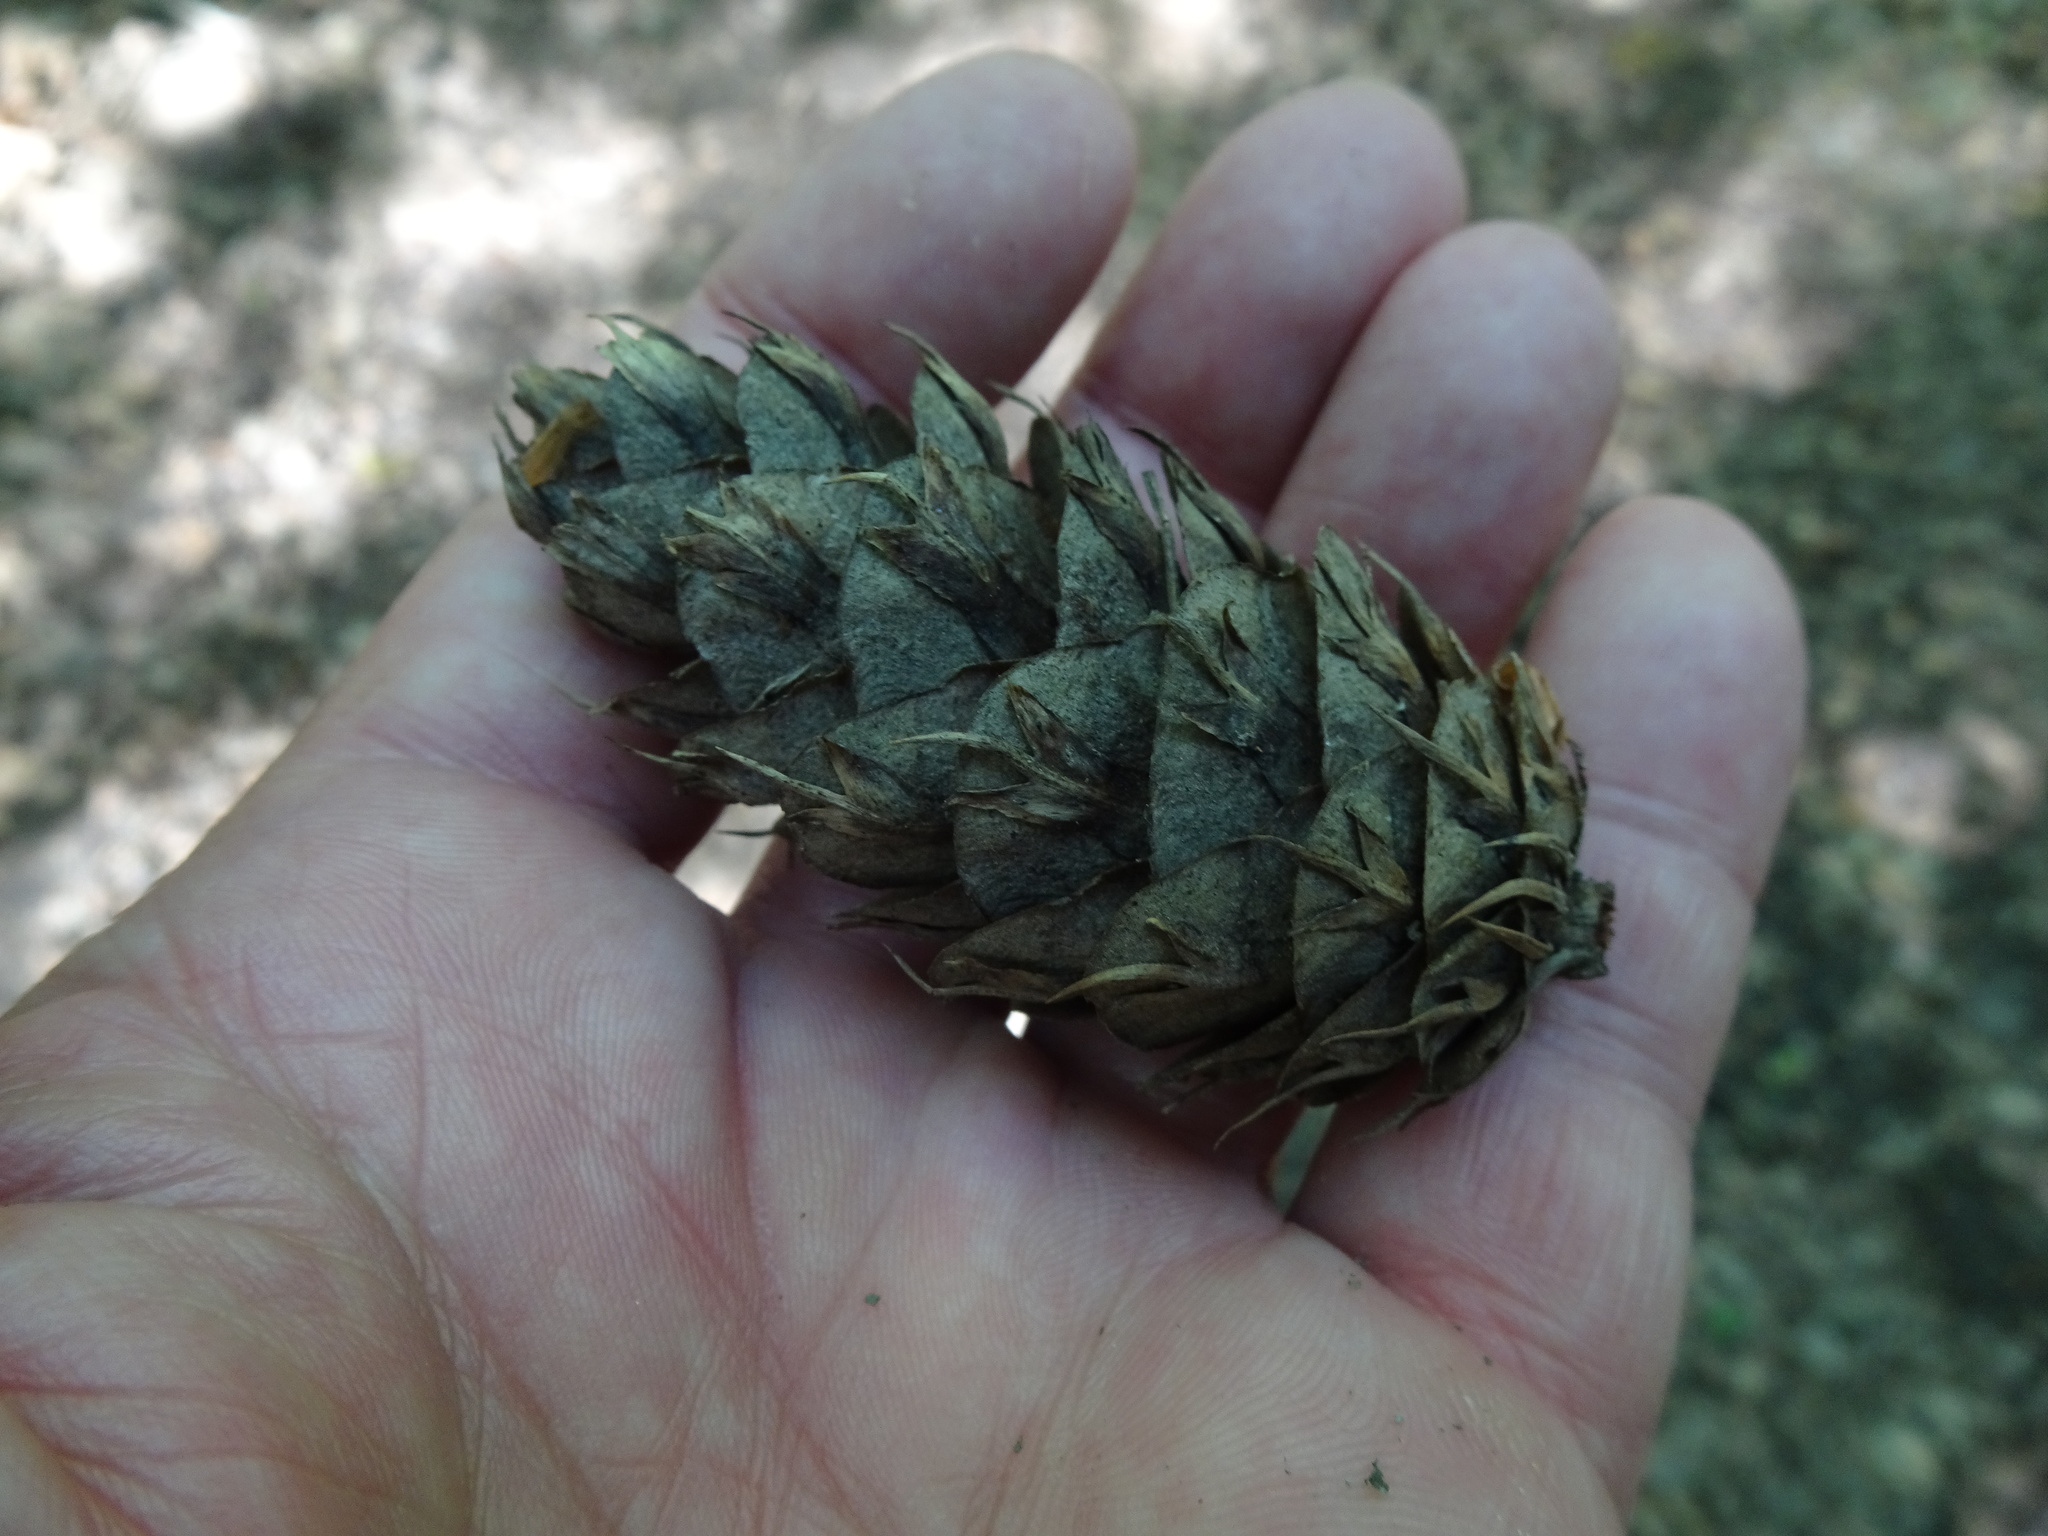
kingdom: Plantae
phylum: Tracheophyta
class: Pinopsida
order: Pinales
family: Pinaceae
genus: Pseudotsuga
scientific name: Pseudotsuga menziesii
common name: Douglas fir
